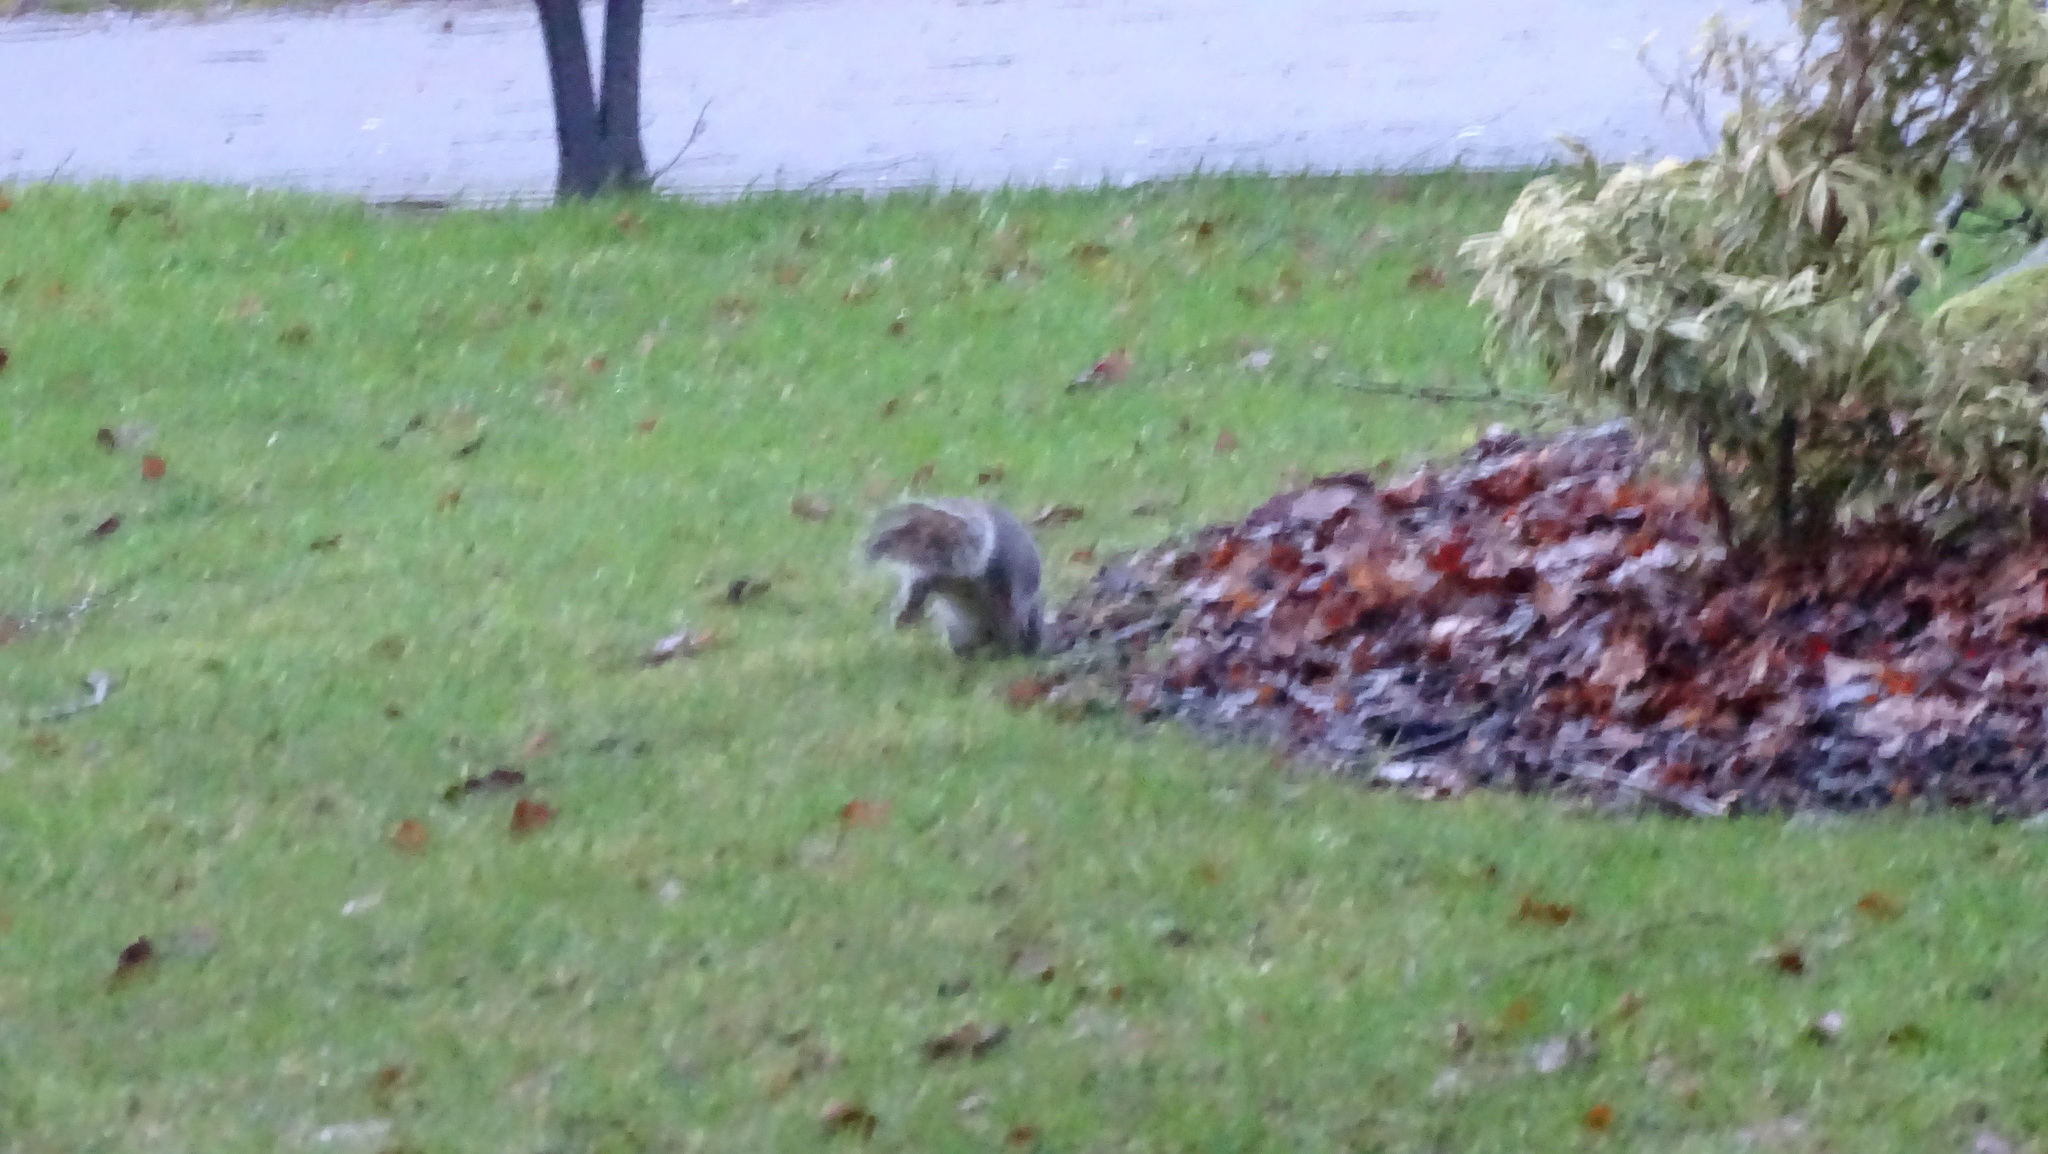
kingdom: Animalia
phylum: Chordata
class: Mammalia
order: Rodentia
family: Sciuridae
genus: Sciurus
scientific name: Sciurus carolinensis
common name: Eastern gray squirrel
